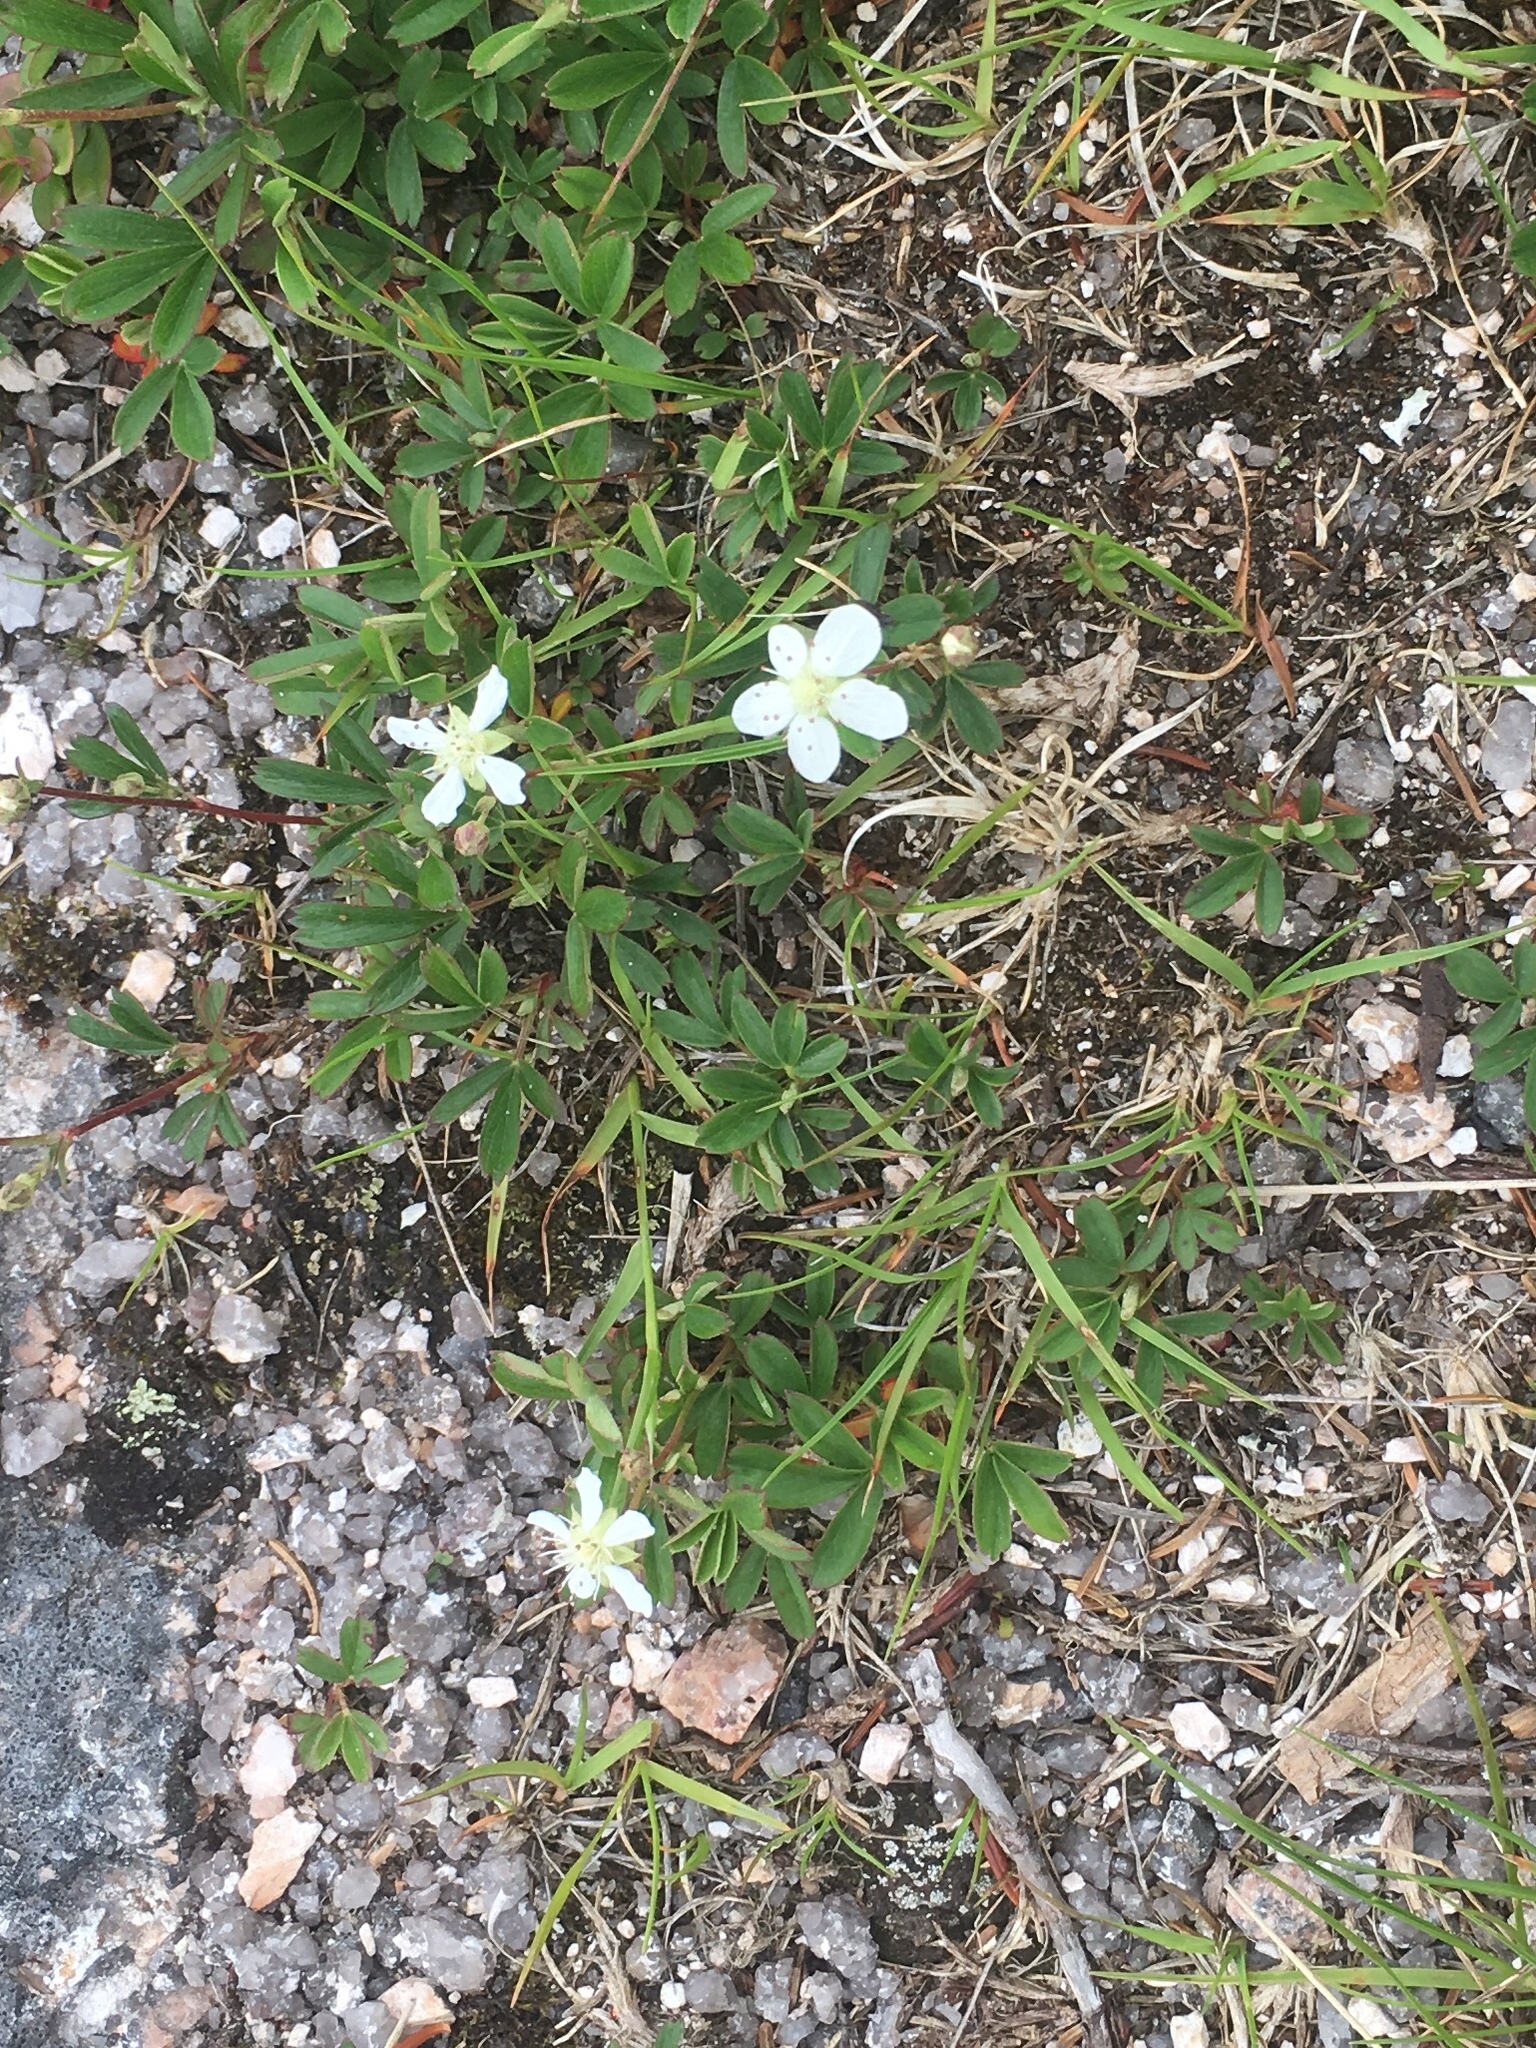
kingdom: Plantae
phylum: Tracheophyta
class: Magnoliopsida
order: Rosales
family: Rosaceae
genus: Sibbaldia
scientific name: Sibbaldia tridentata
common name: Three-toothed cinquefoil
